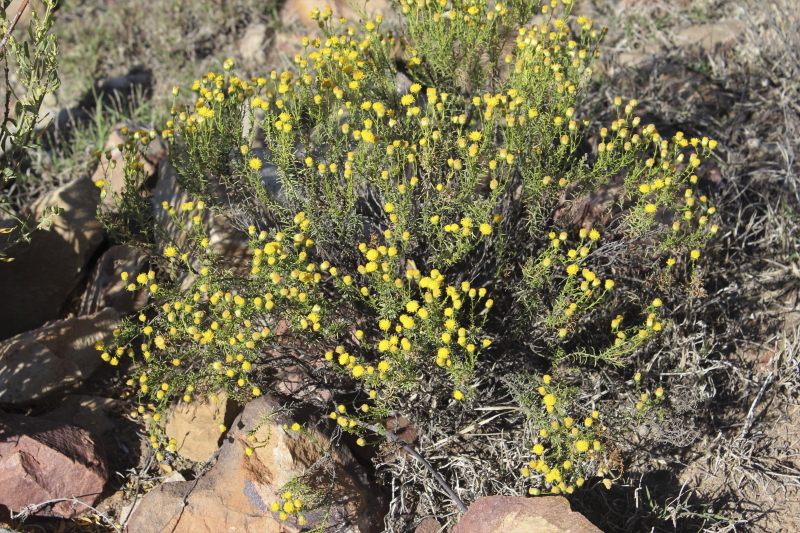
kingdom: Plantae
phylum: Tracheophyta
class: Magnoliopsida
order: Asterales
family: Asteraceae
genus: Chrysocoma
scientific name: Chrysocoma ciliata
